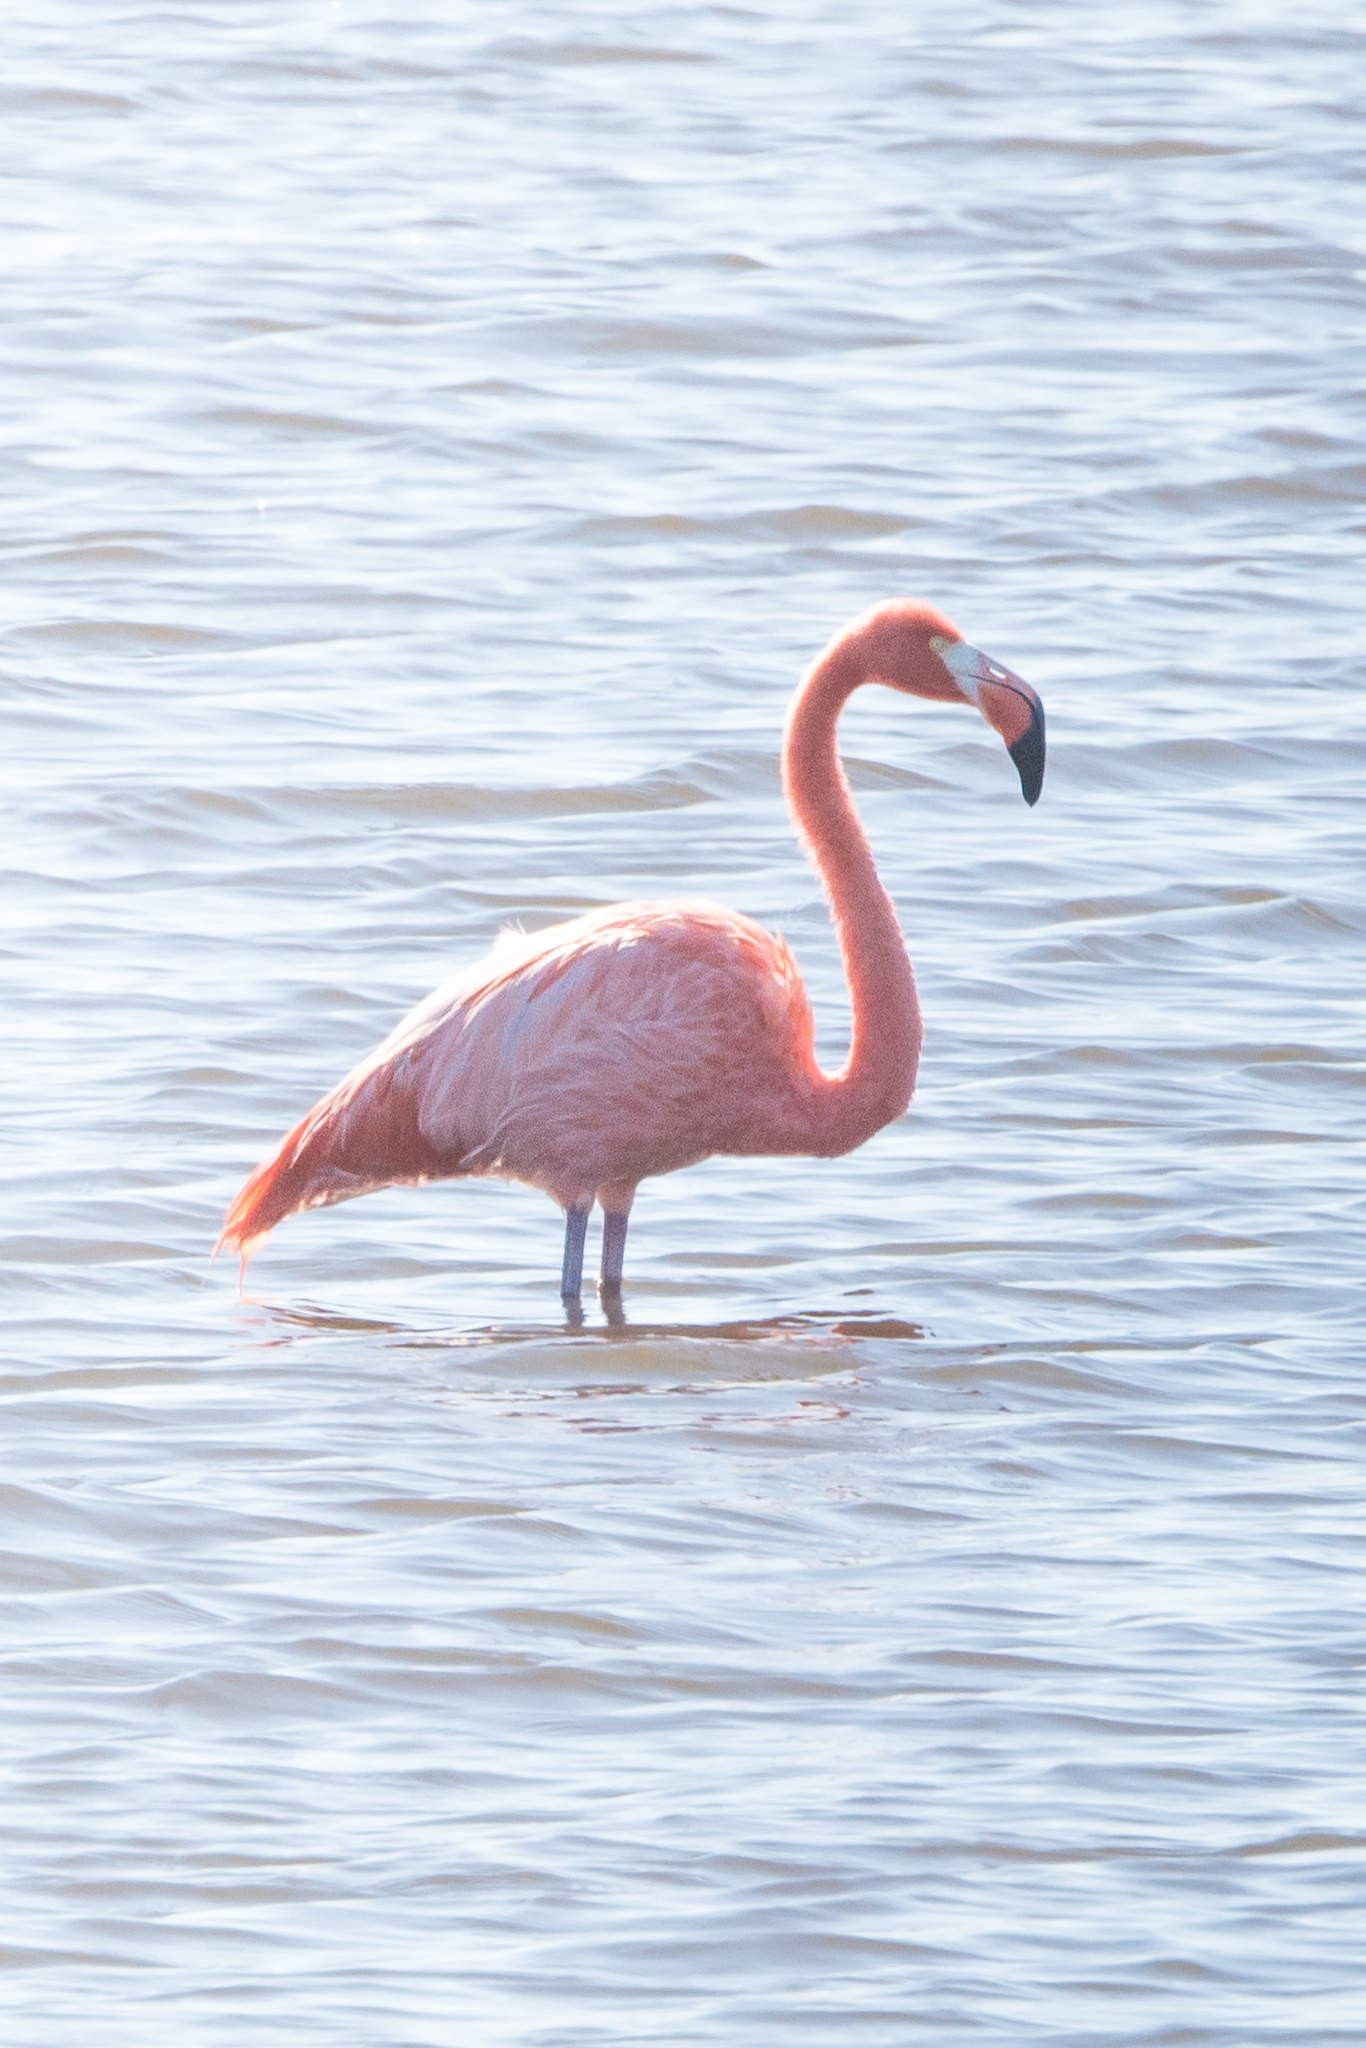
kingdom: Animalia
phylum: Chordata
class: Aves
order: Phoenicopteriformes
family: Phoenicopteridae
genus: Phoenicopterus
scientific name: Phoenicopterus ruber
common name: American flamingo
